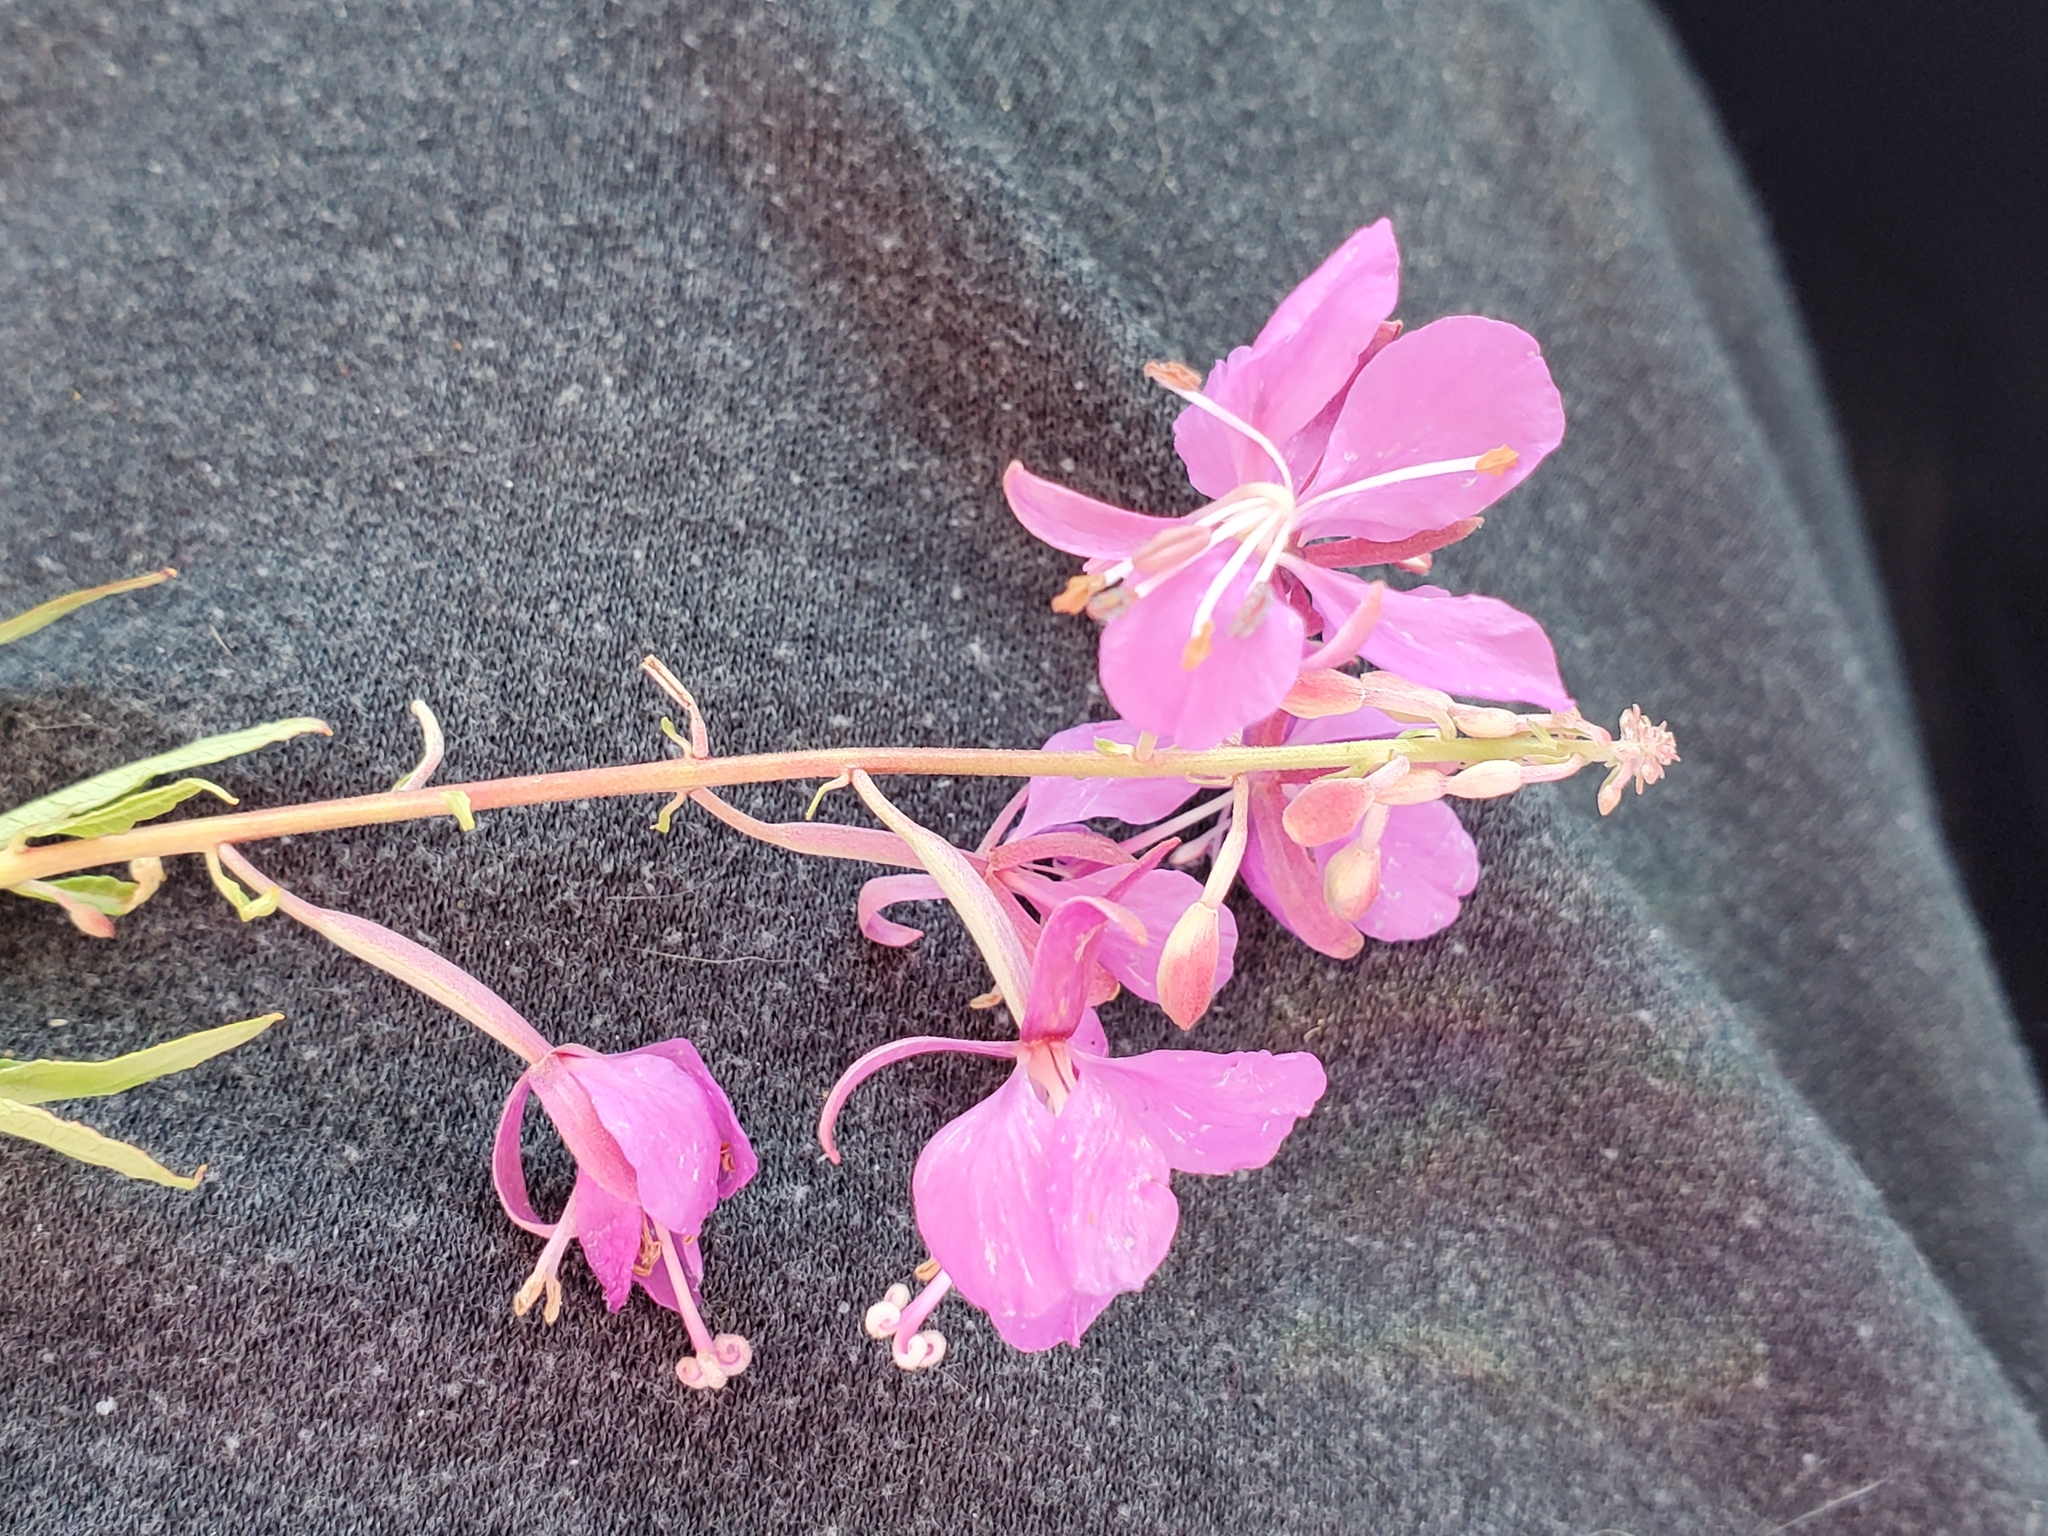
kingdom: Plantae
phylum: Tracheophyta
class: Magnoliopsida
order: Myrtales
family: Onagraceae
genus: Chamaenerion
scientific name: Chamaenerion angustifolium
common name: Fireweed
